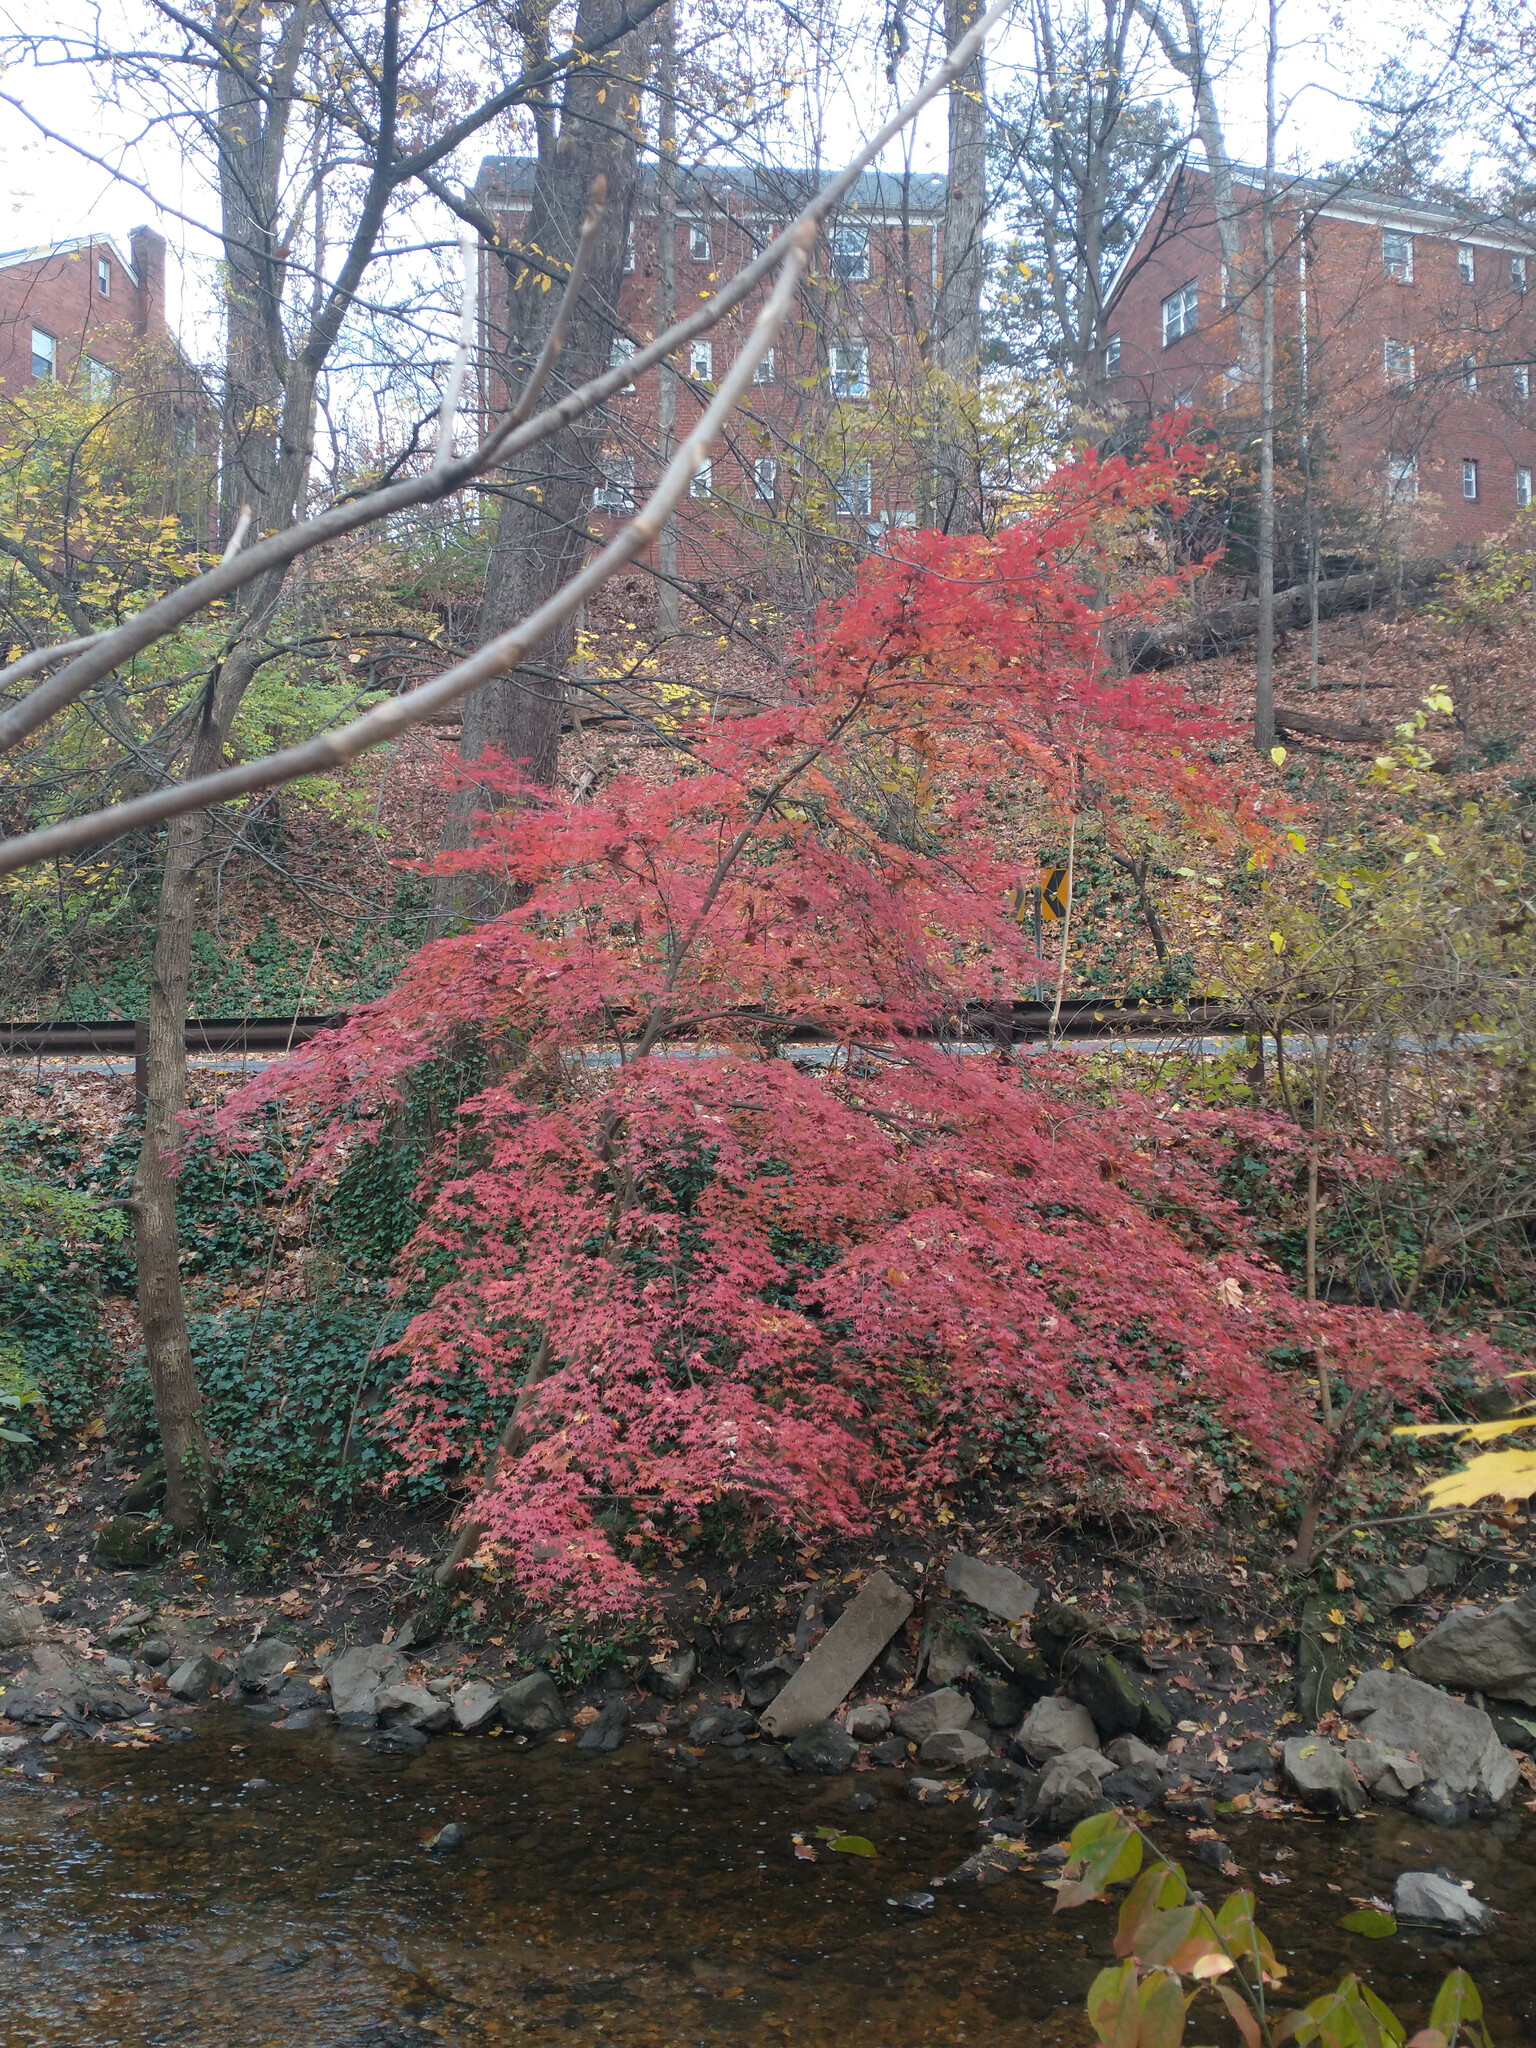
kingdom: Plantae
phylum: Tracheophyta
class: Magnoliopsida
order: Sapindales
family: Sapindaceae
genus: Acer
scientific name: Acer palmatum
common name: Japanese maple
